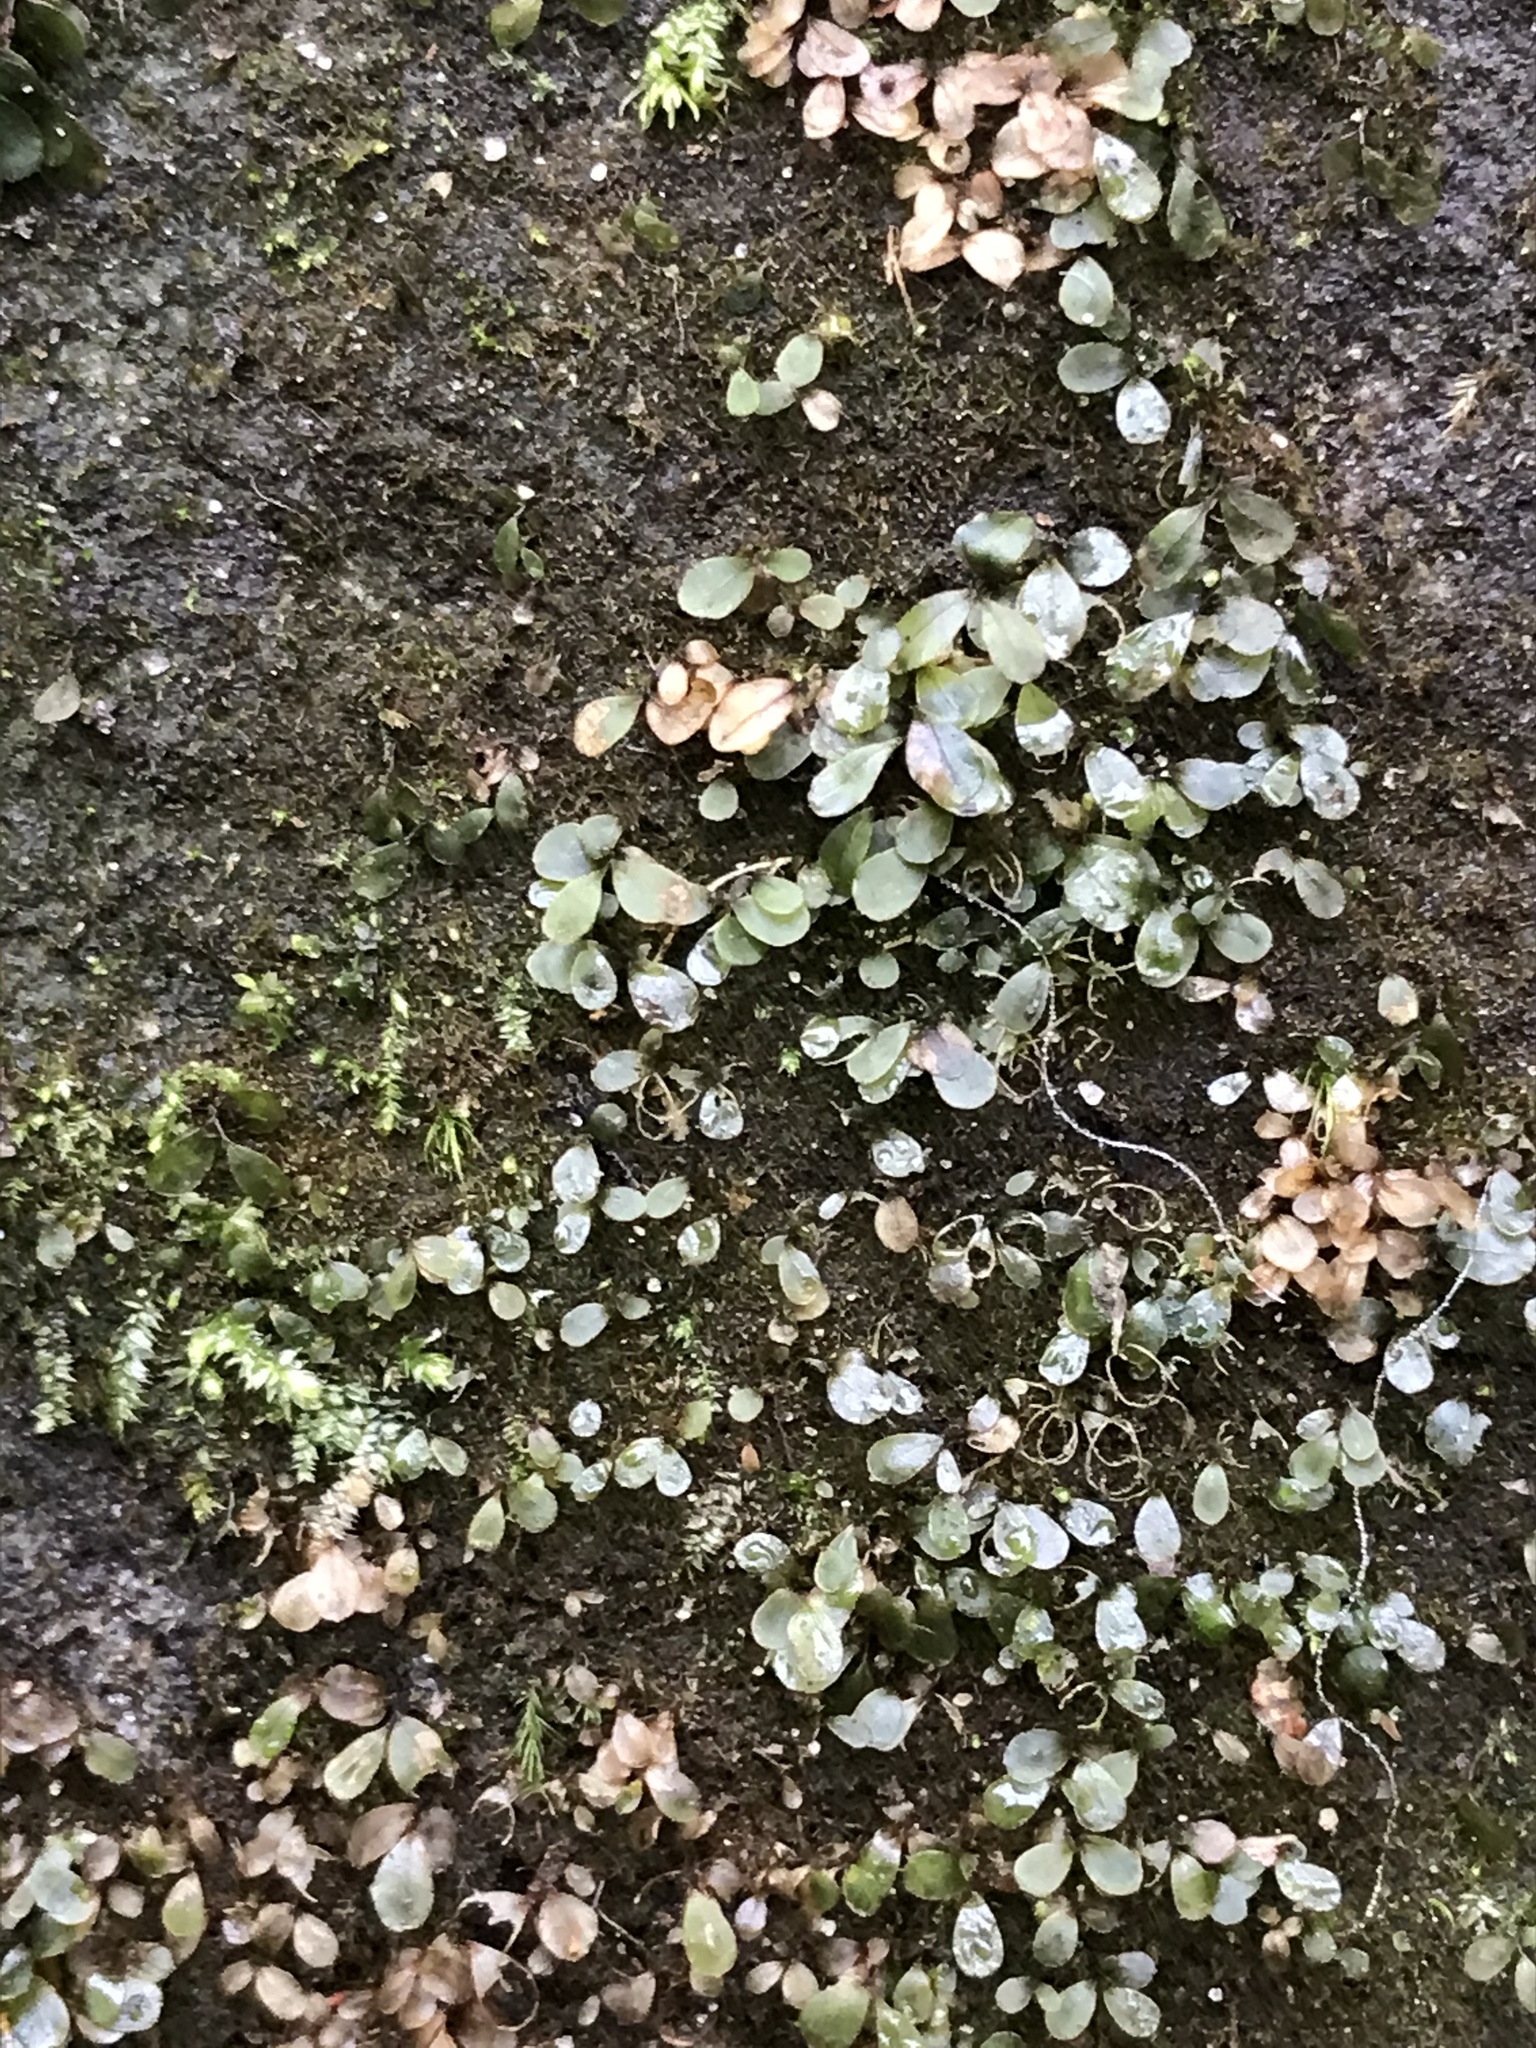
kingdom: Plantae
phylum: Bryophyta
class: Bryopsida
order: Bryales
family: Mniaceae
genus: Rhizomnium
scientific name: Rhizomnium punctatum
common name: Dotted leafy moss
